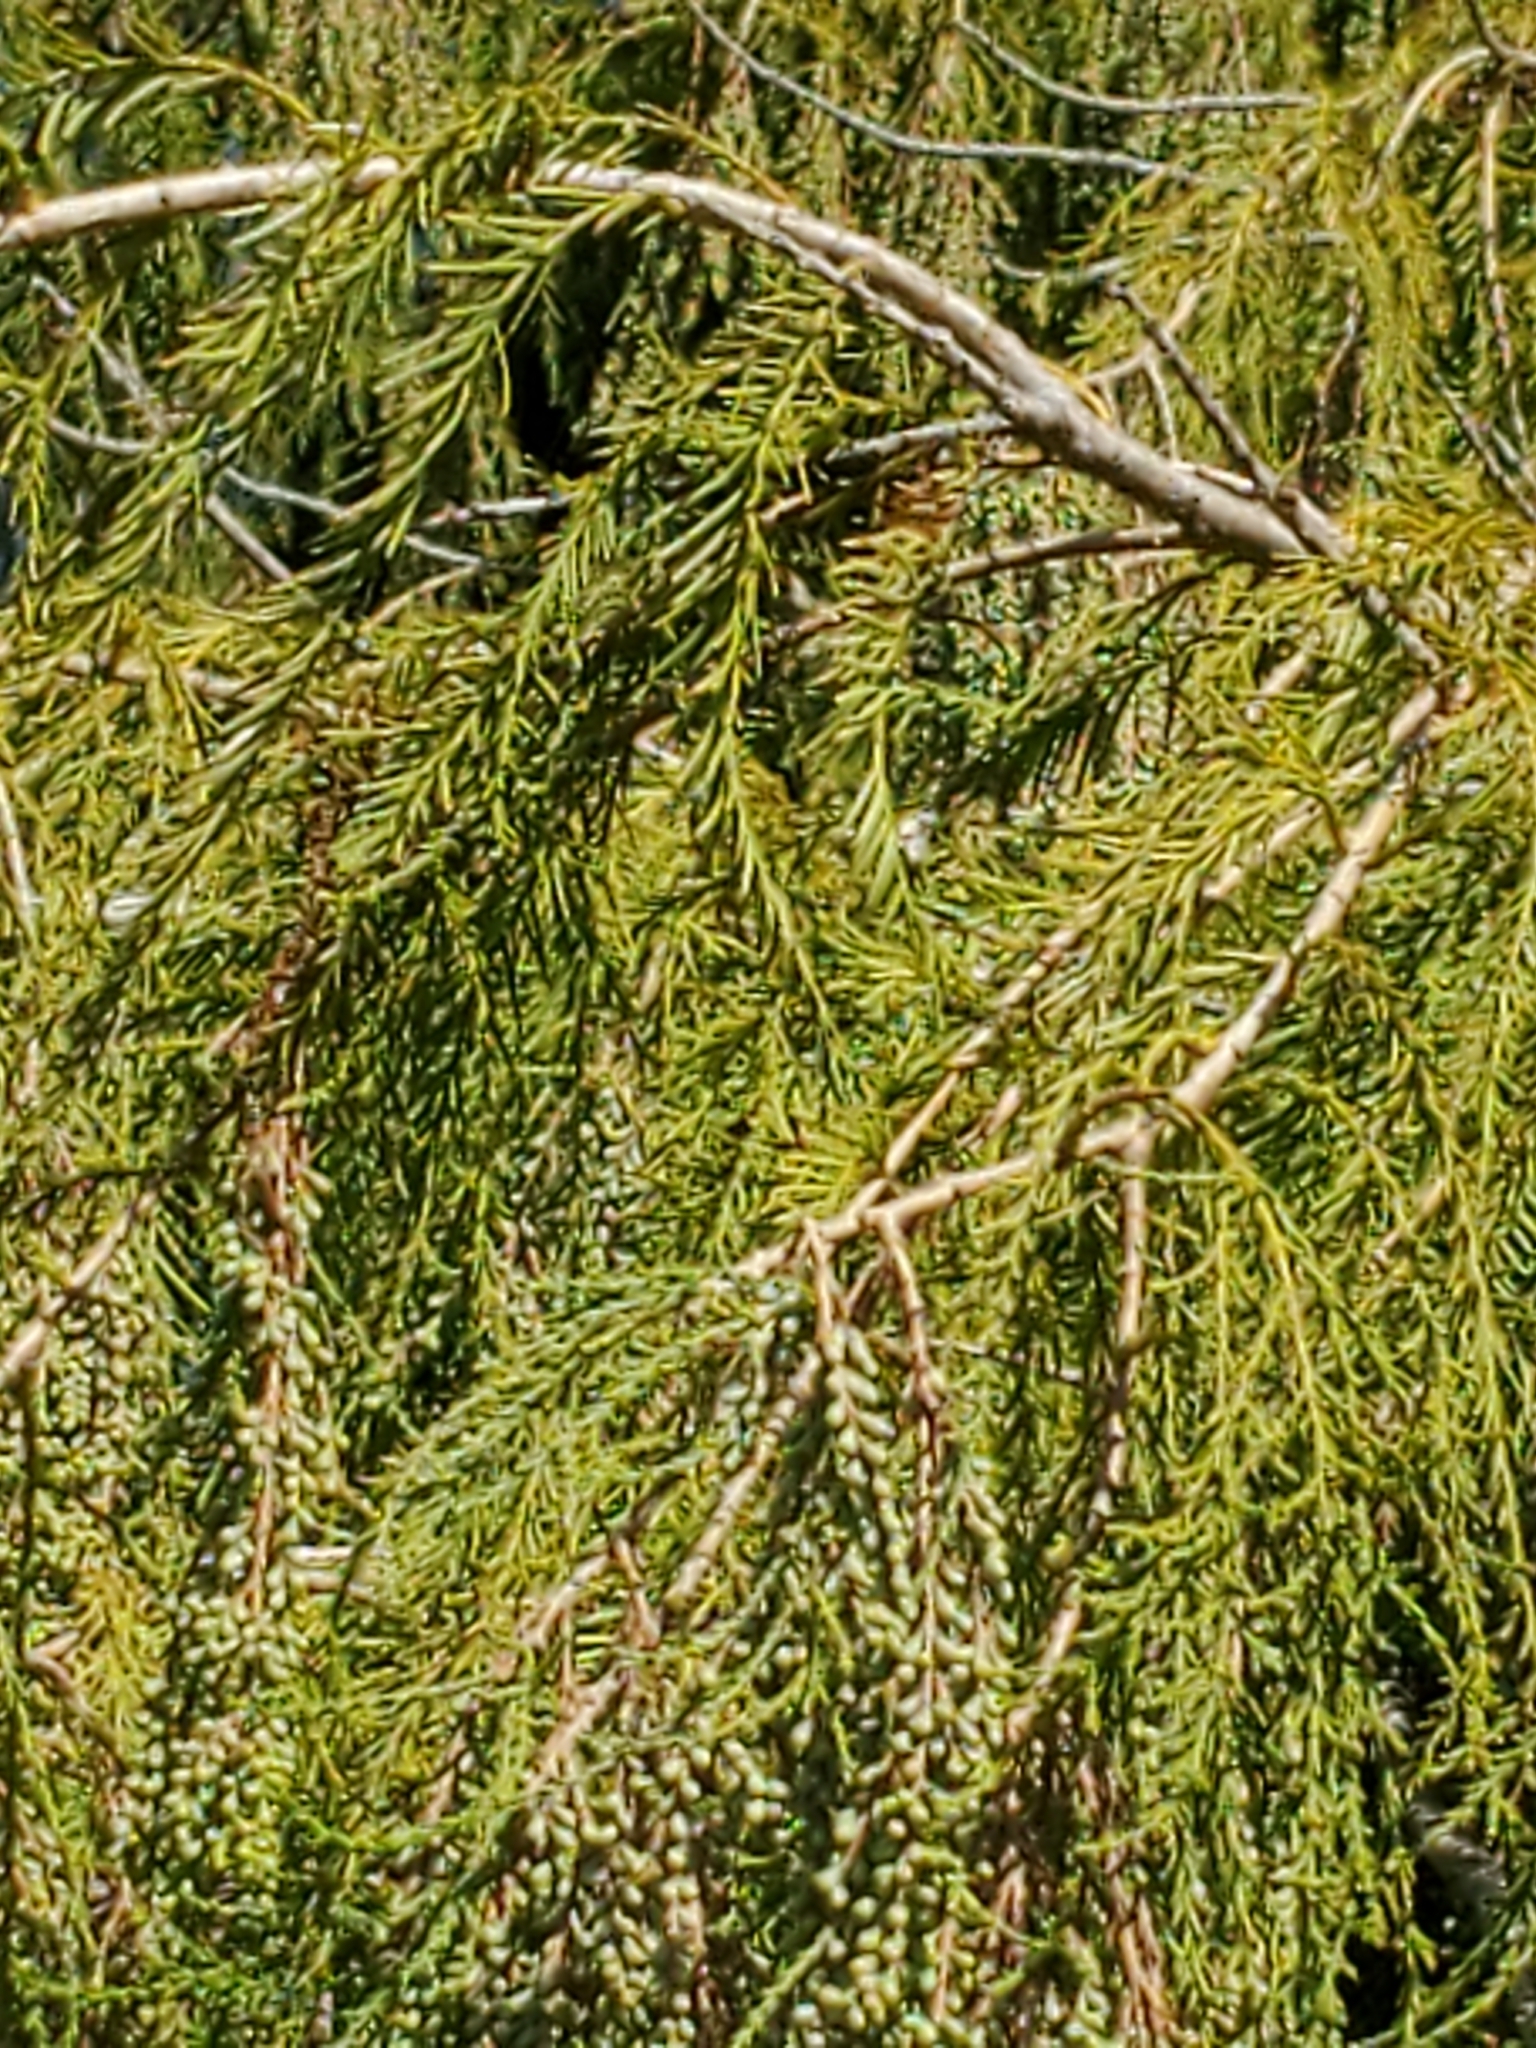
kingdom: Plantae
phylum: Tracheophyta
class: Pinopsida
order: Pinales
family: Cupressaceae
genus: Taxodium
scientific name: Taxodium mucronatum
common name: Montezume bald cypress
